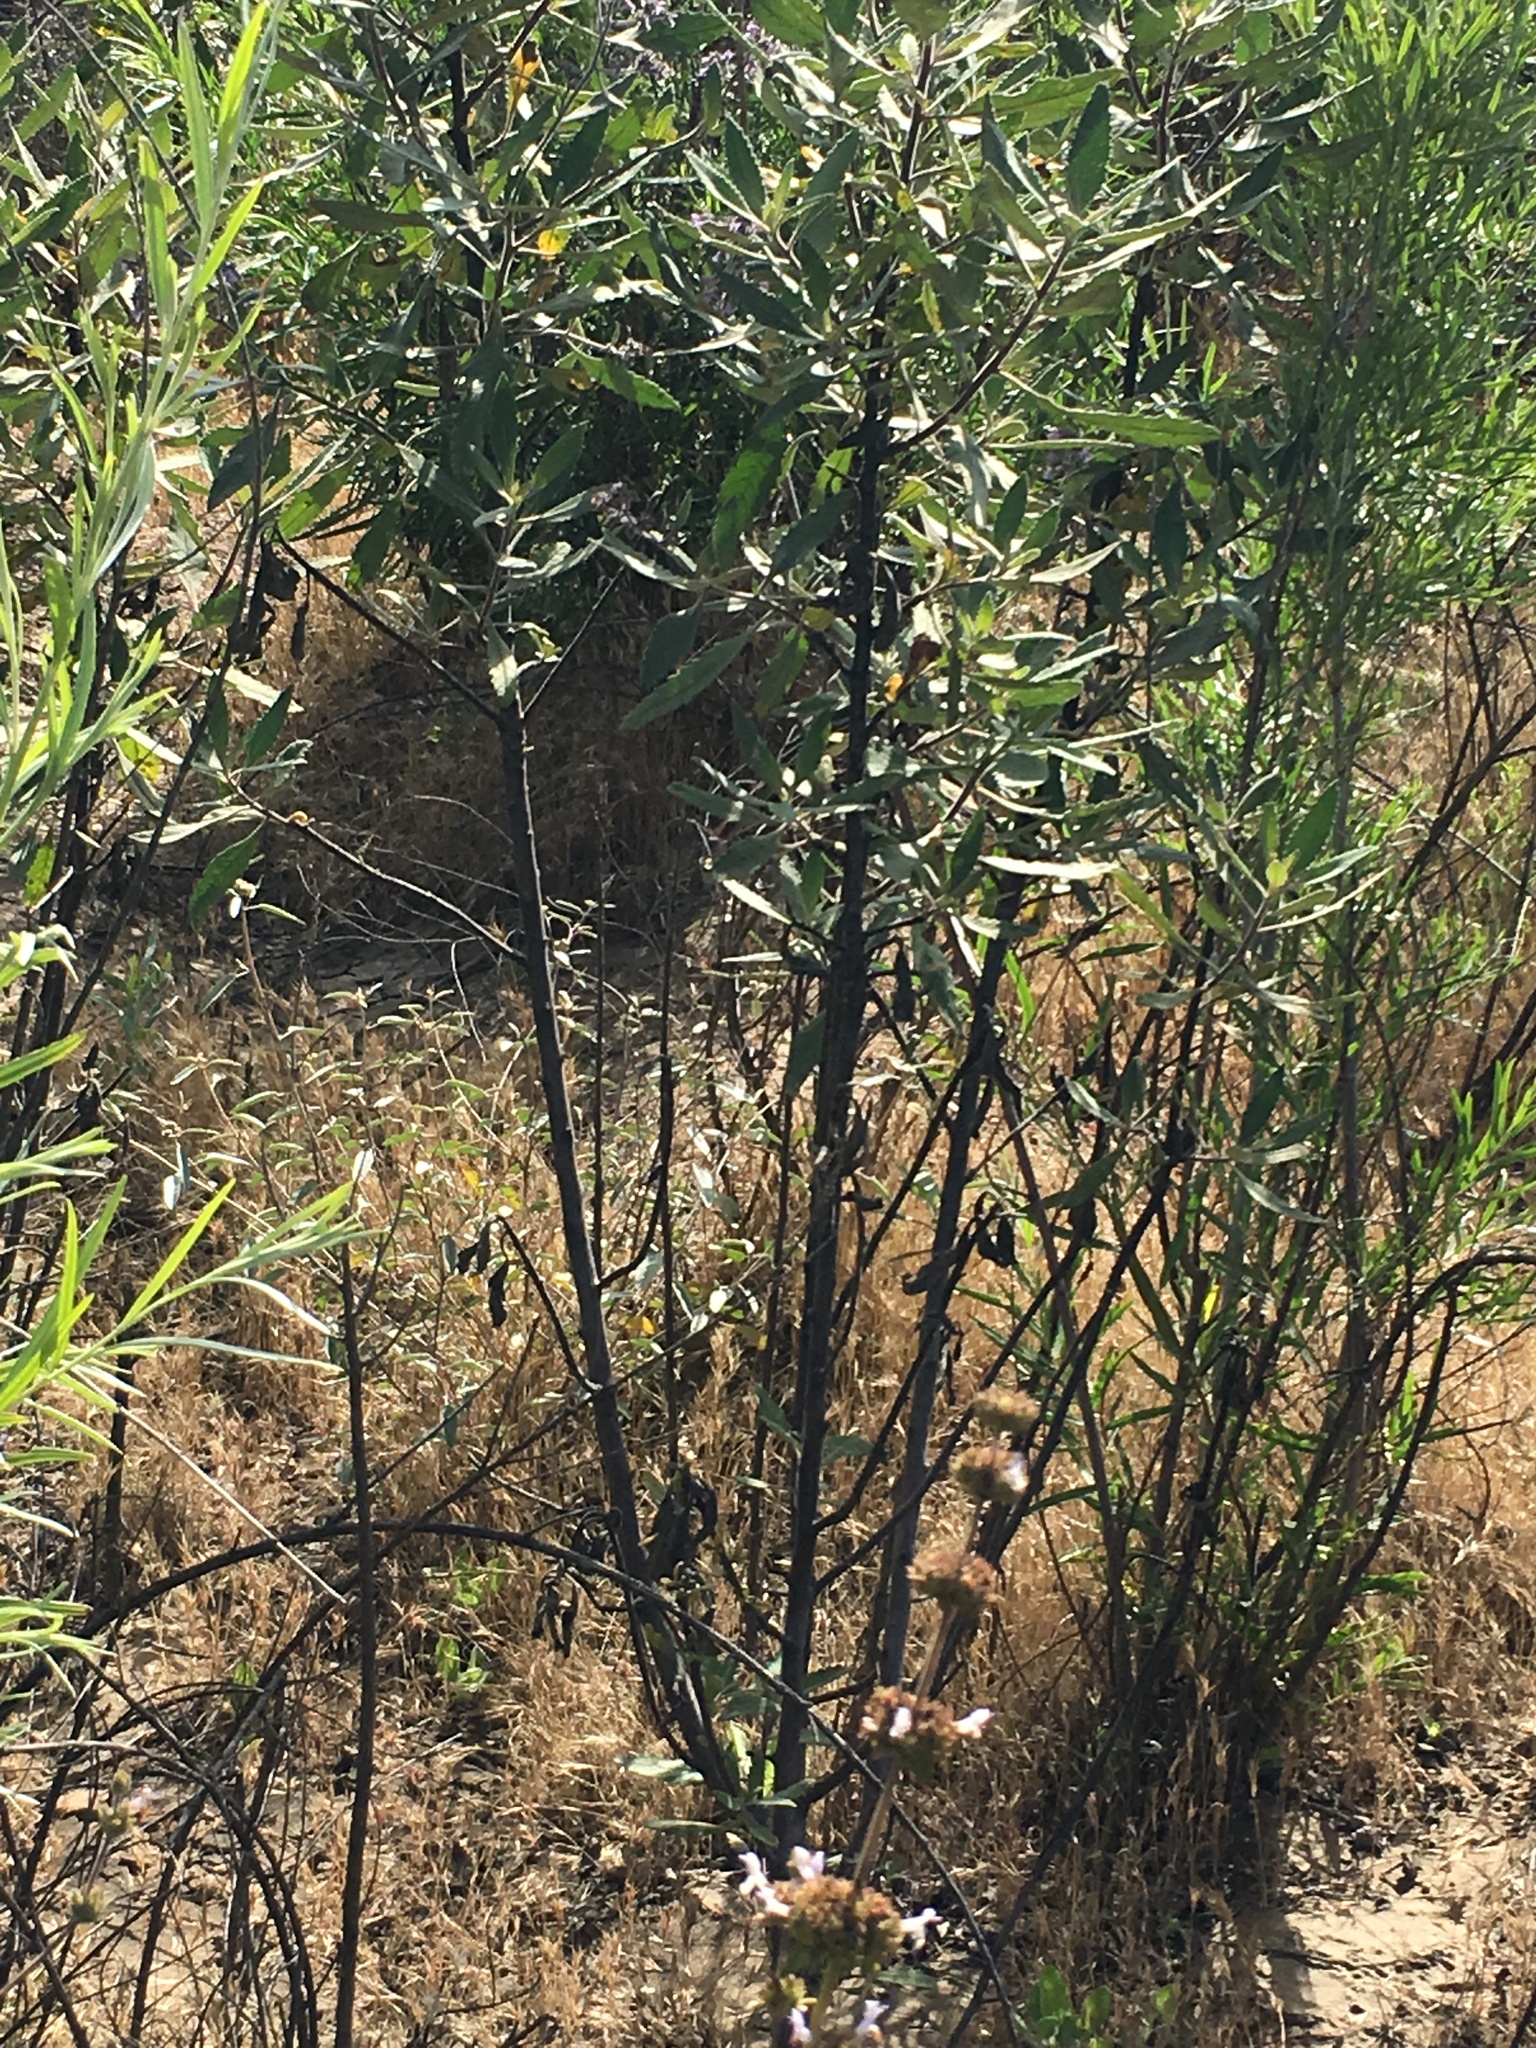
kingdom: Plantae
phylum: Tracheophyta
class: Magnoliopsida
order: Boraginales
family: Namaceae
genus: Eriodictyon
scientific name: Eriodictyon crassifolium
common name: Thick-leaf yerba-santa
